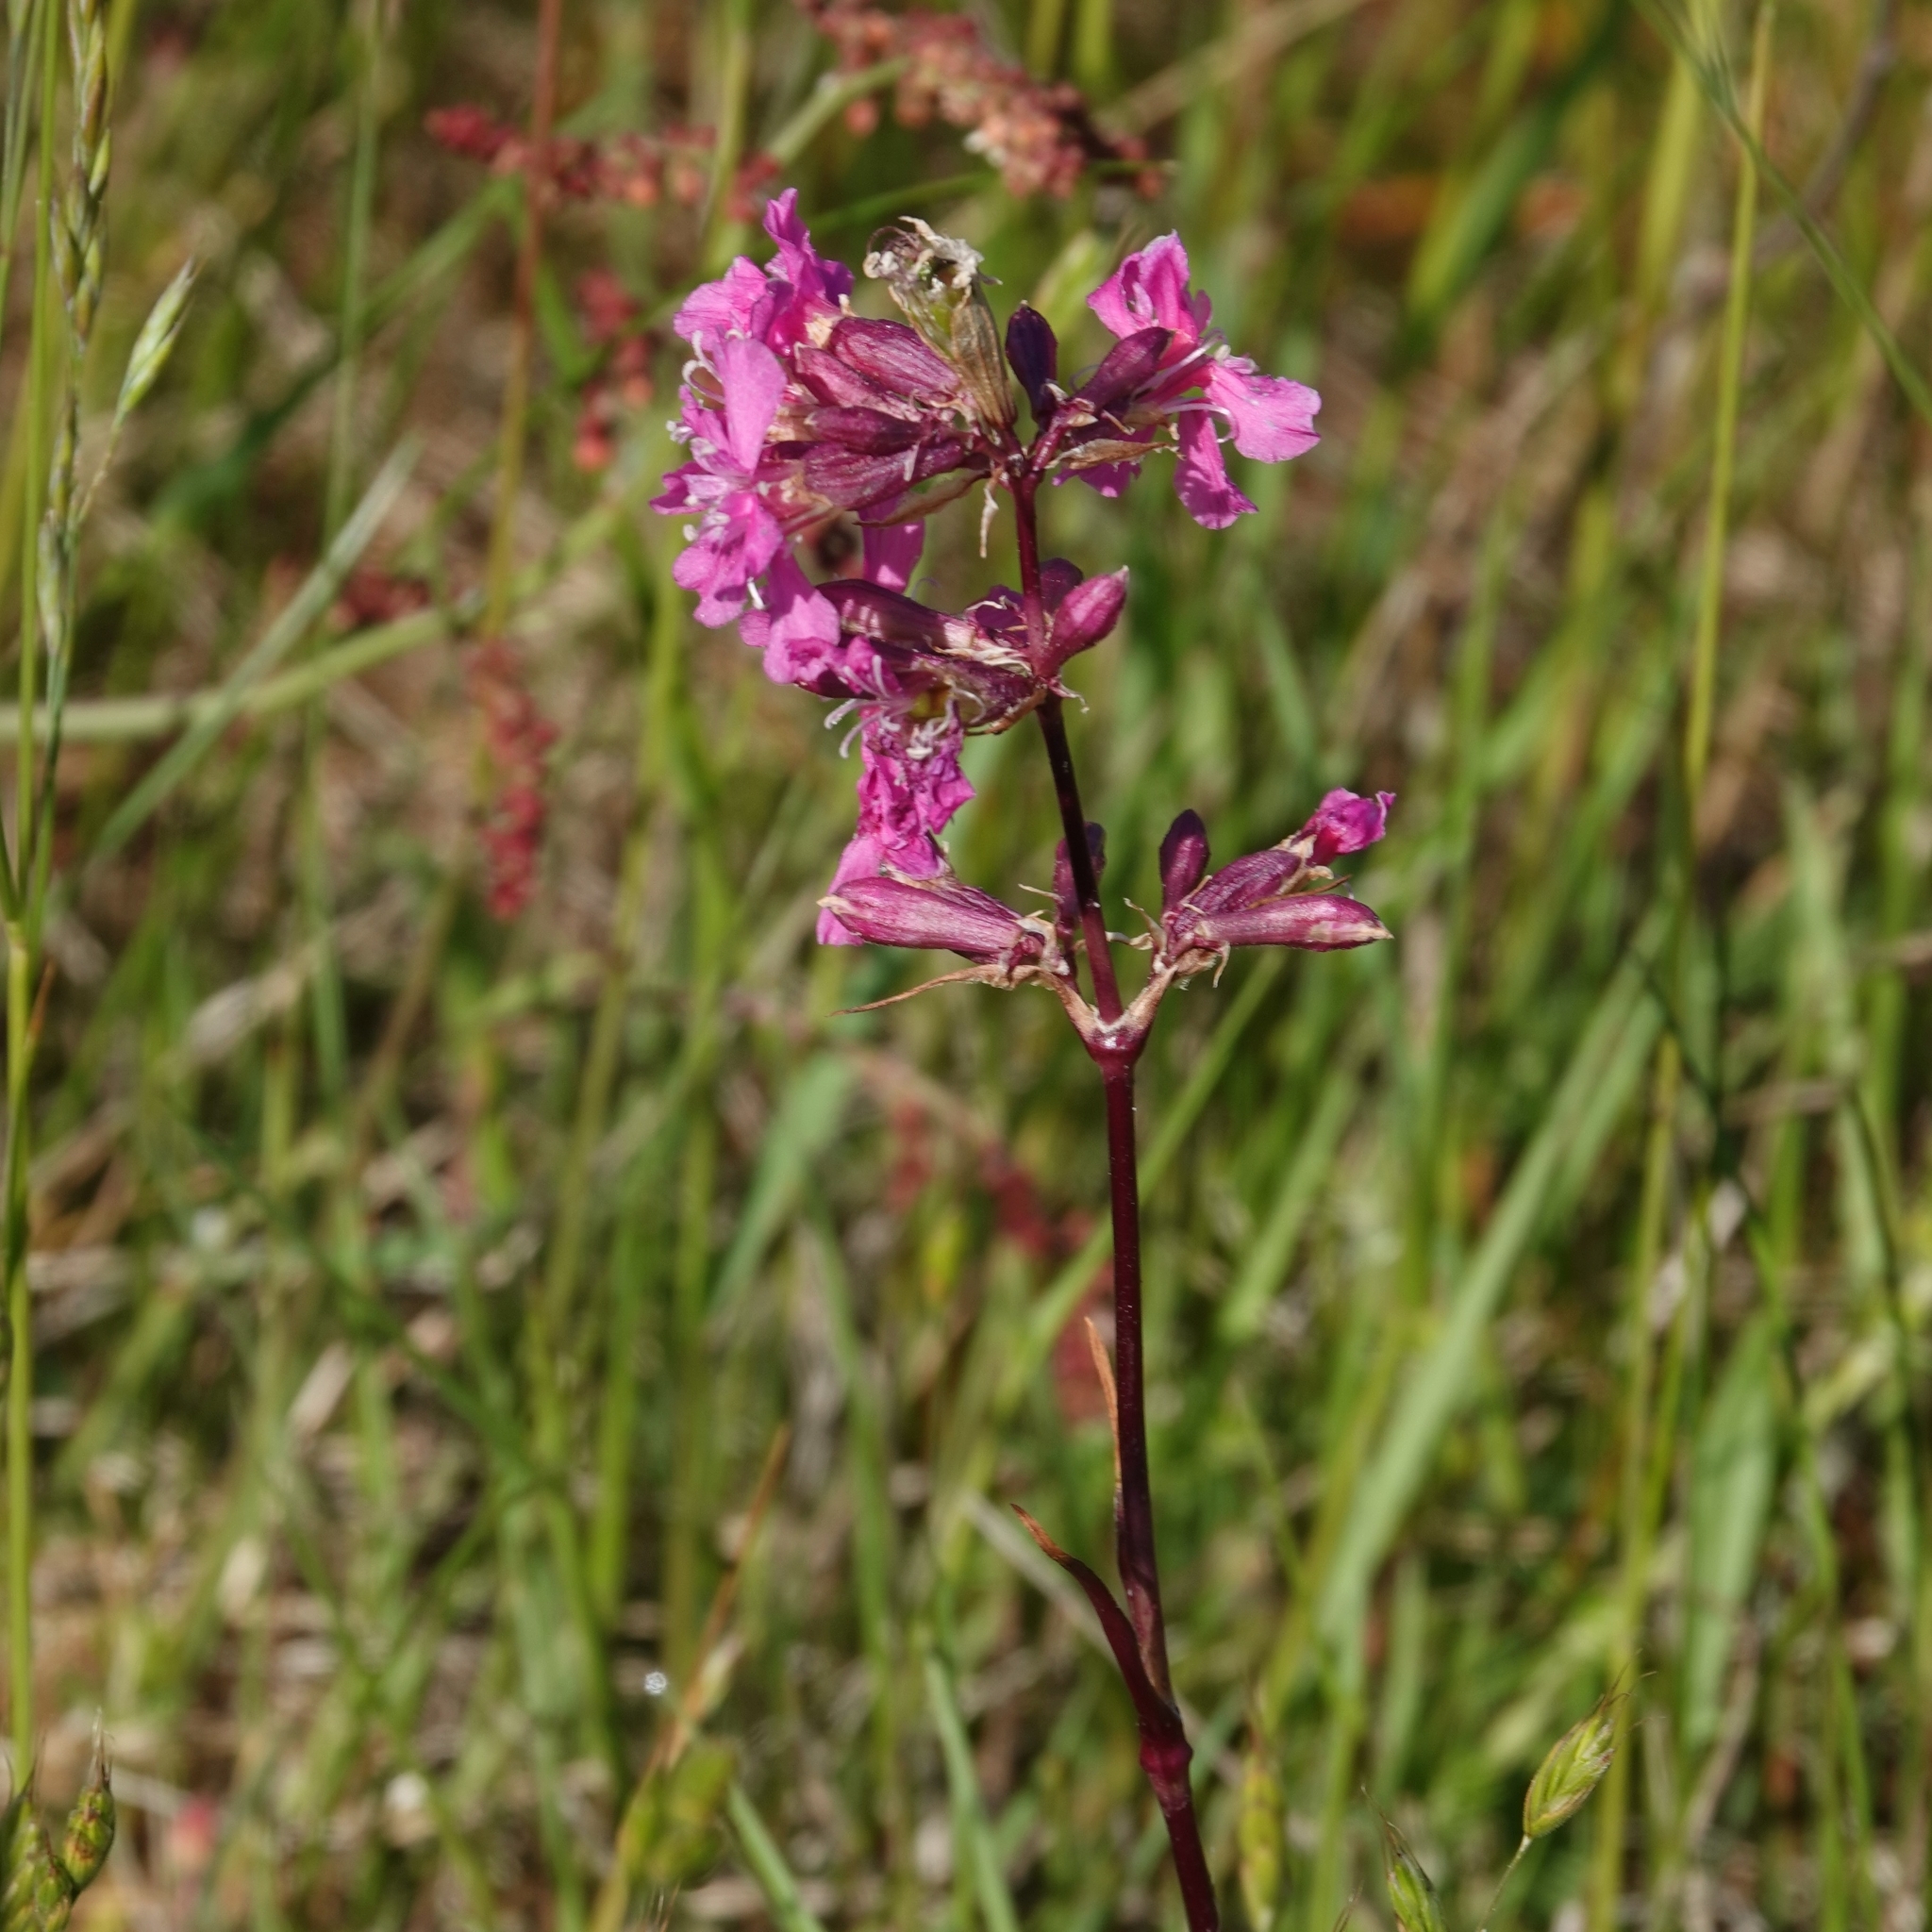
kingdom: Plantae
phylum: Tracheophyta
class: Magnoliopsida
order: Caryophyllales
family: Caryophyllaceae
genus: Viscaria
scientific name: Viscaria vulgaris
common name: Clammy campion
